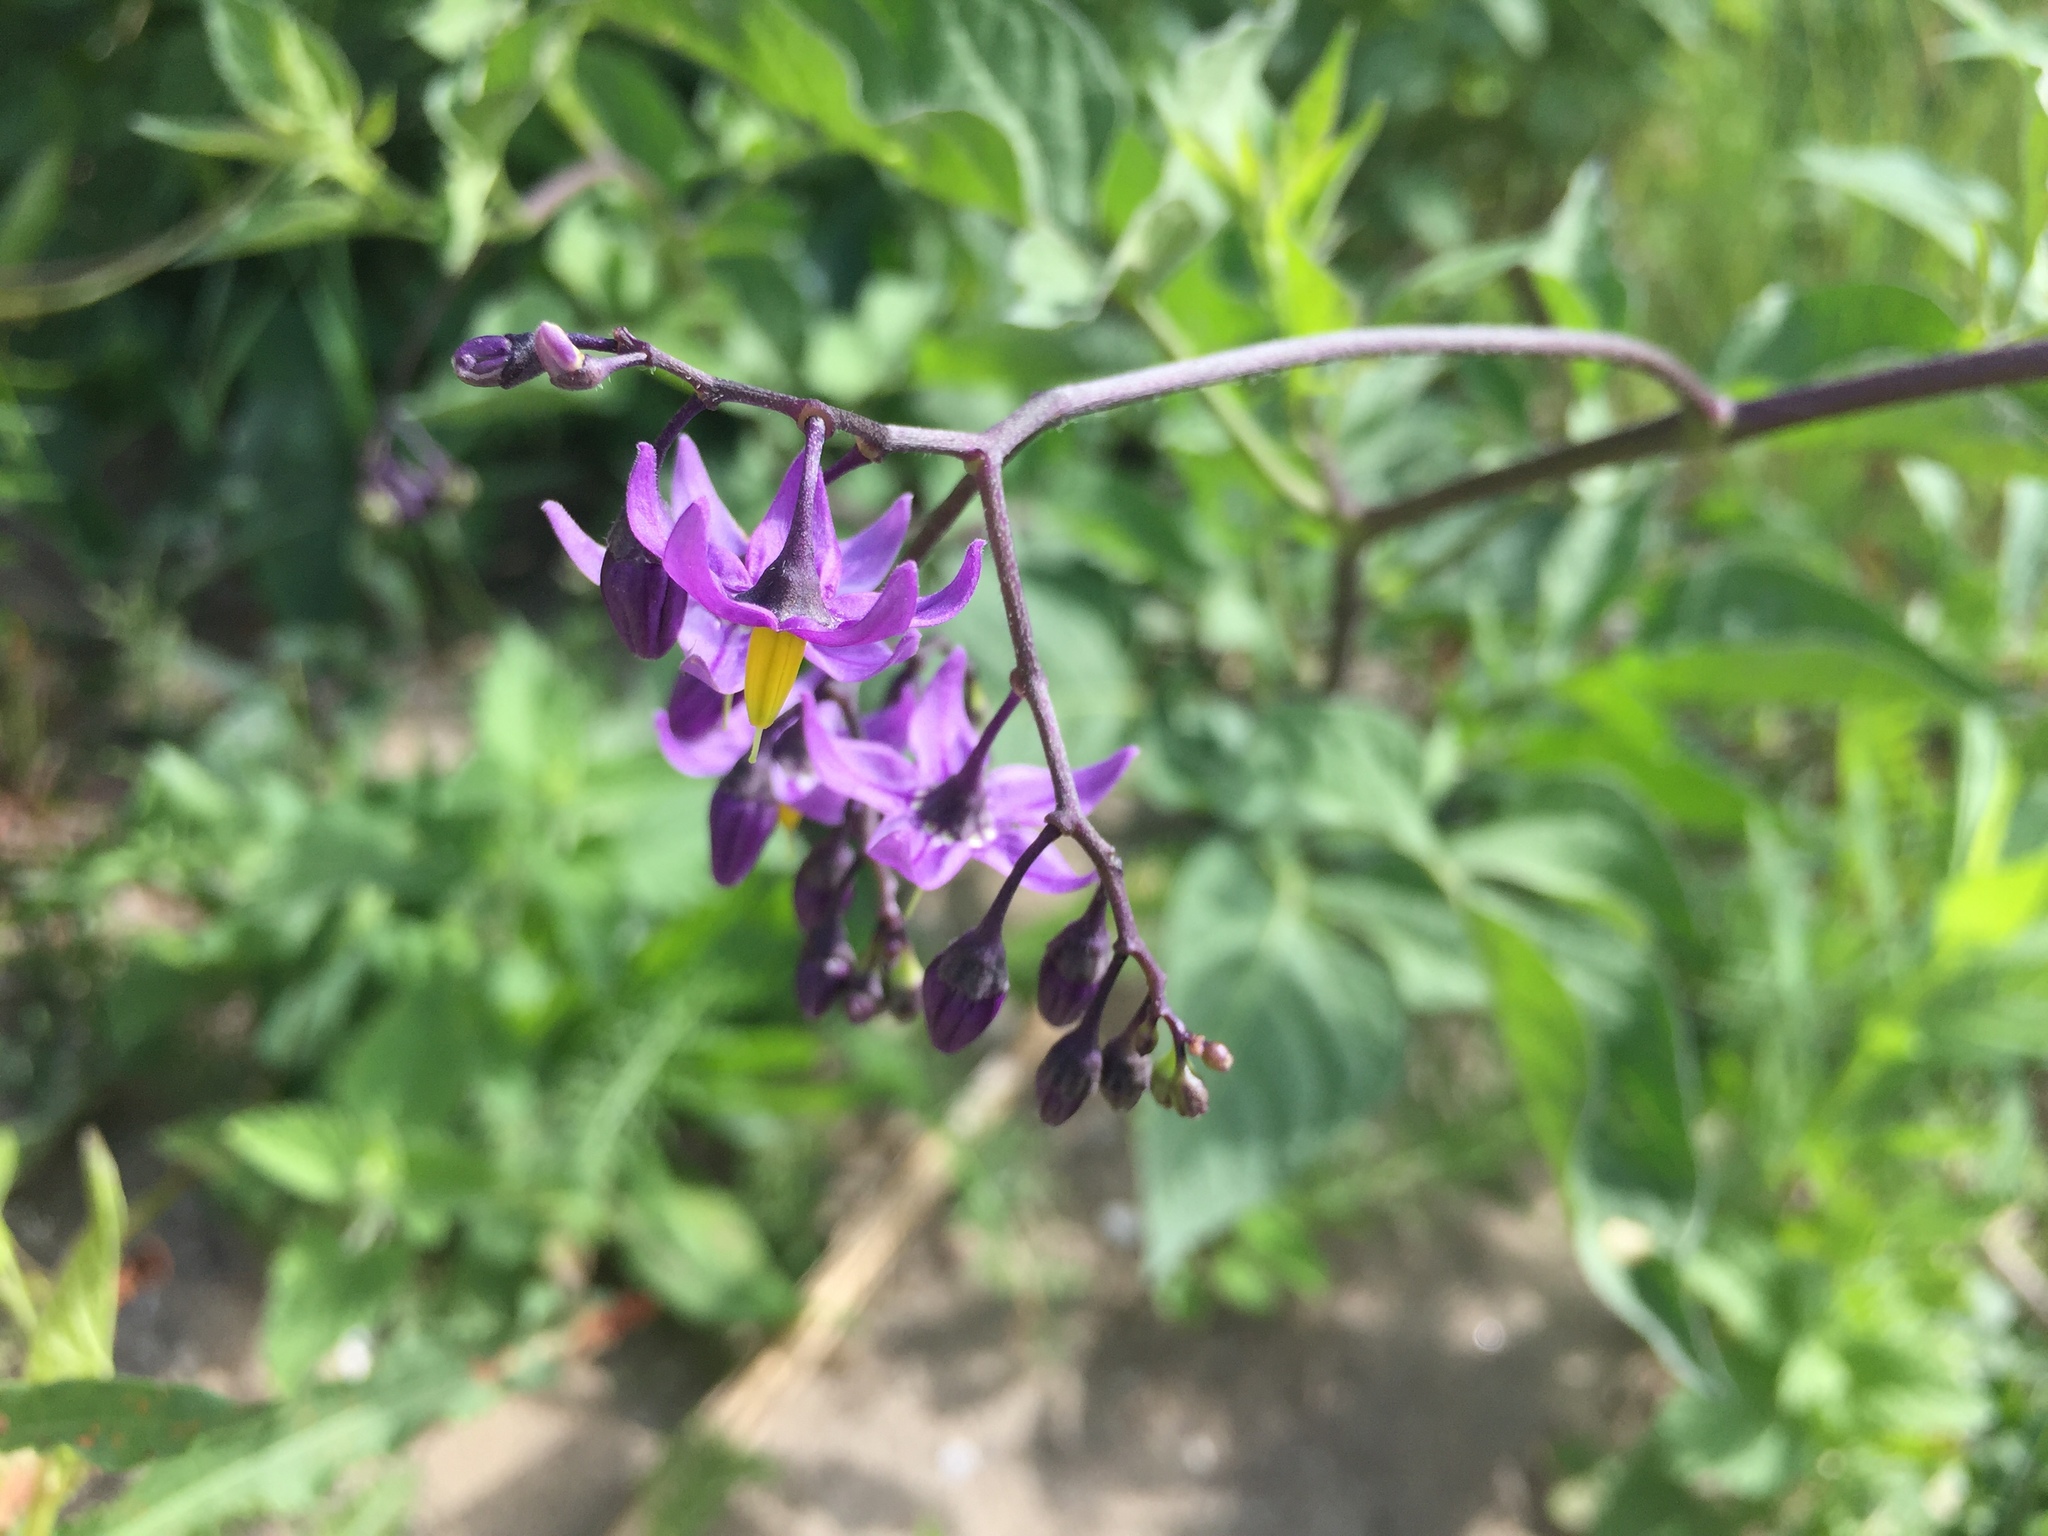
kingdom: Plantae
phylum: Tracheophyta
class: Magnoliopsida
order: Solanales
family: Solanaceae
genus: Solanum
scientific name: Solanum dulcamara
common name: Climbing nightshade
